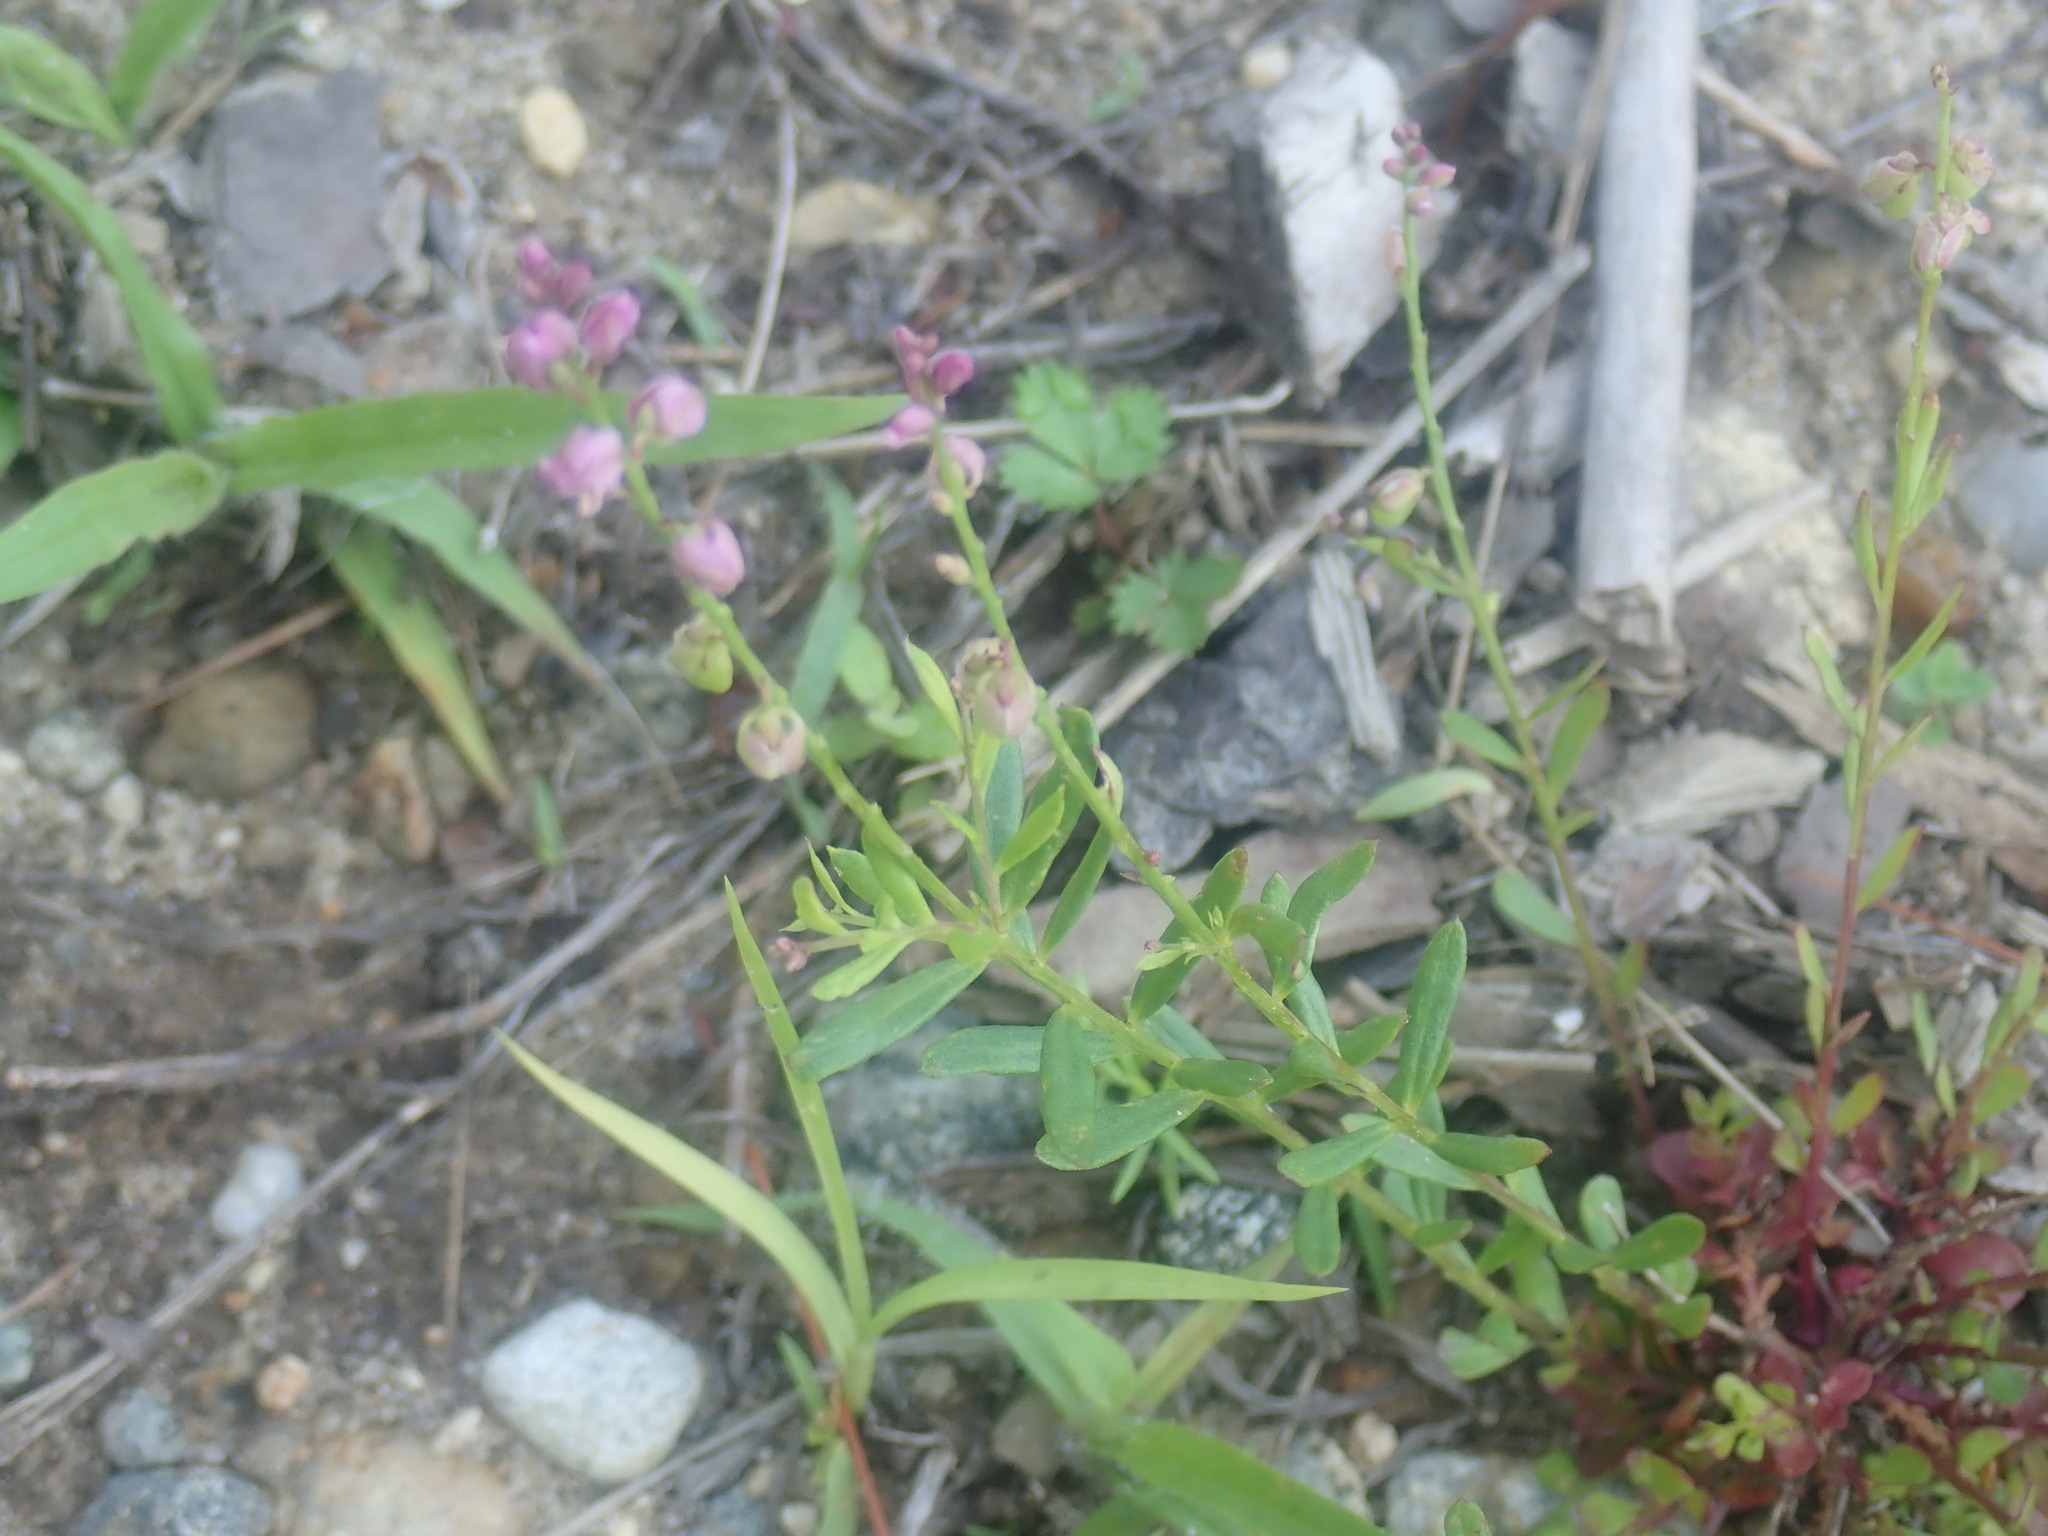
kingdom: Plantae
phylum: Tracheophyta
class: Magnoliopsida
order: Fabales
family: Polygalaceae
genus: Polygala
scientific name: Polygala polygama
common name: Bitter milkwort
